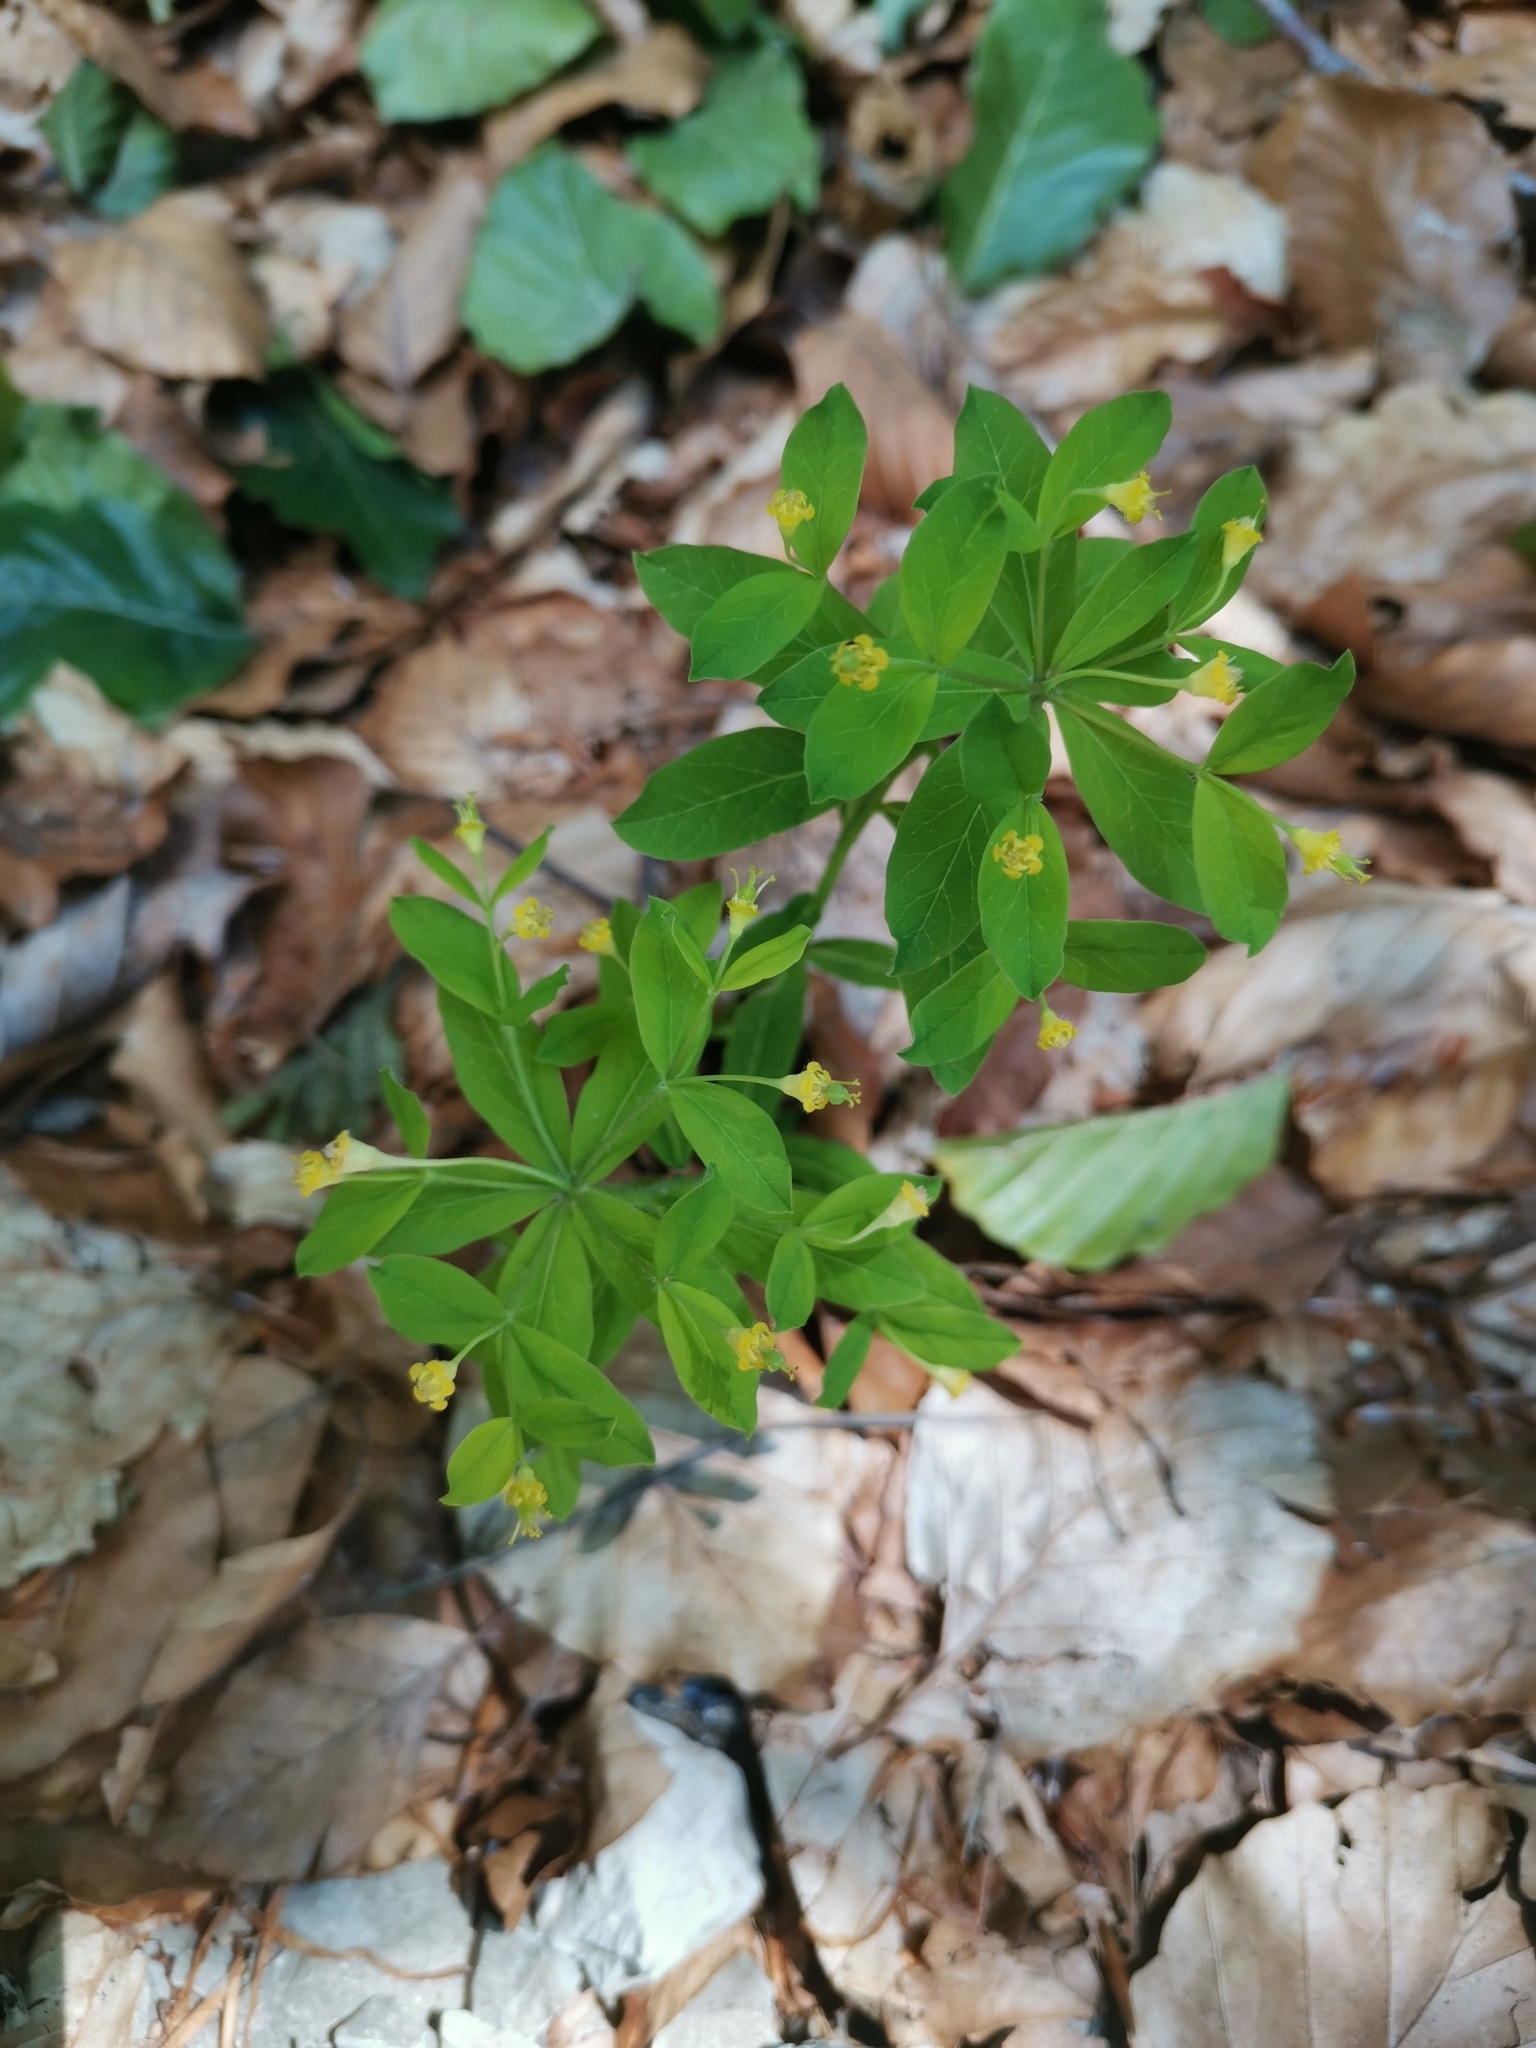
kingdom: Plantae
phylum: Tracheophyta
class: Magnoliopsida
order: Malpighiales
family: Euphorbiaceae
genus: Euphorbia
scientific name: Euphorbia carniolica
